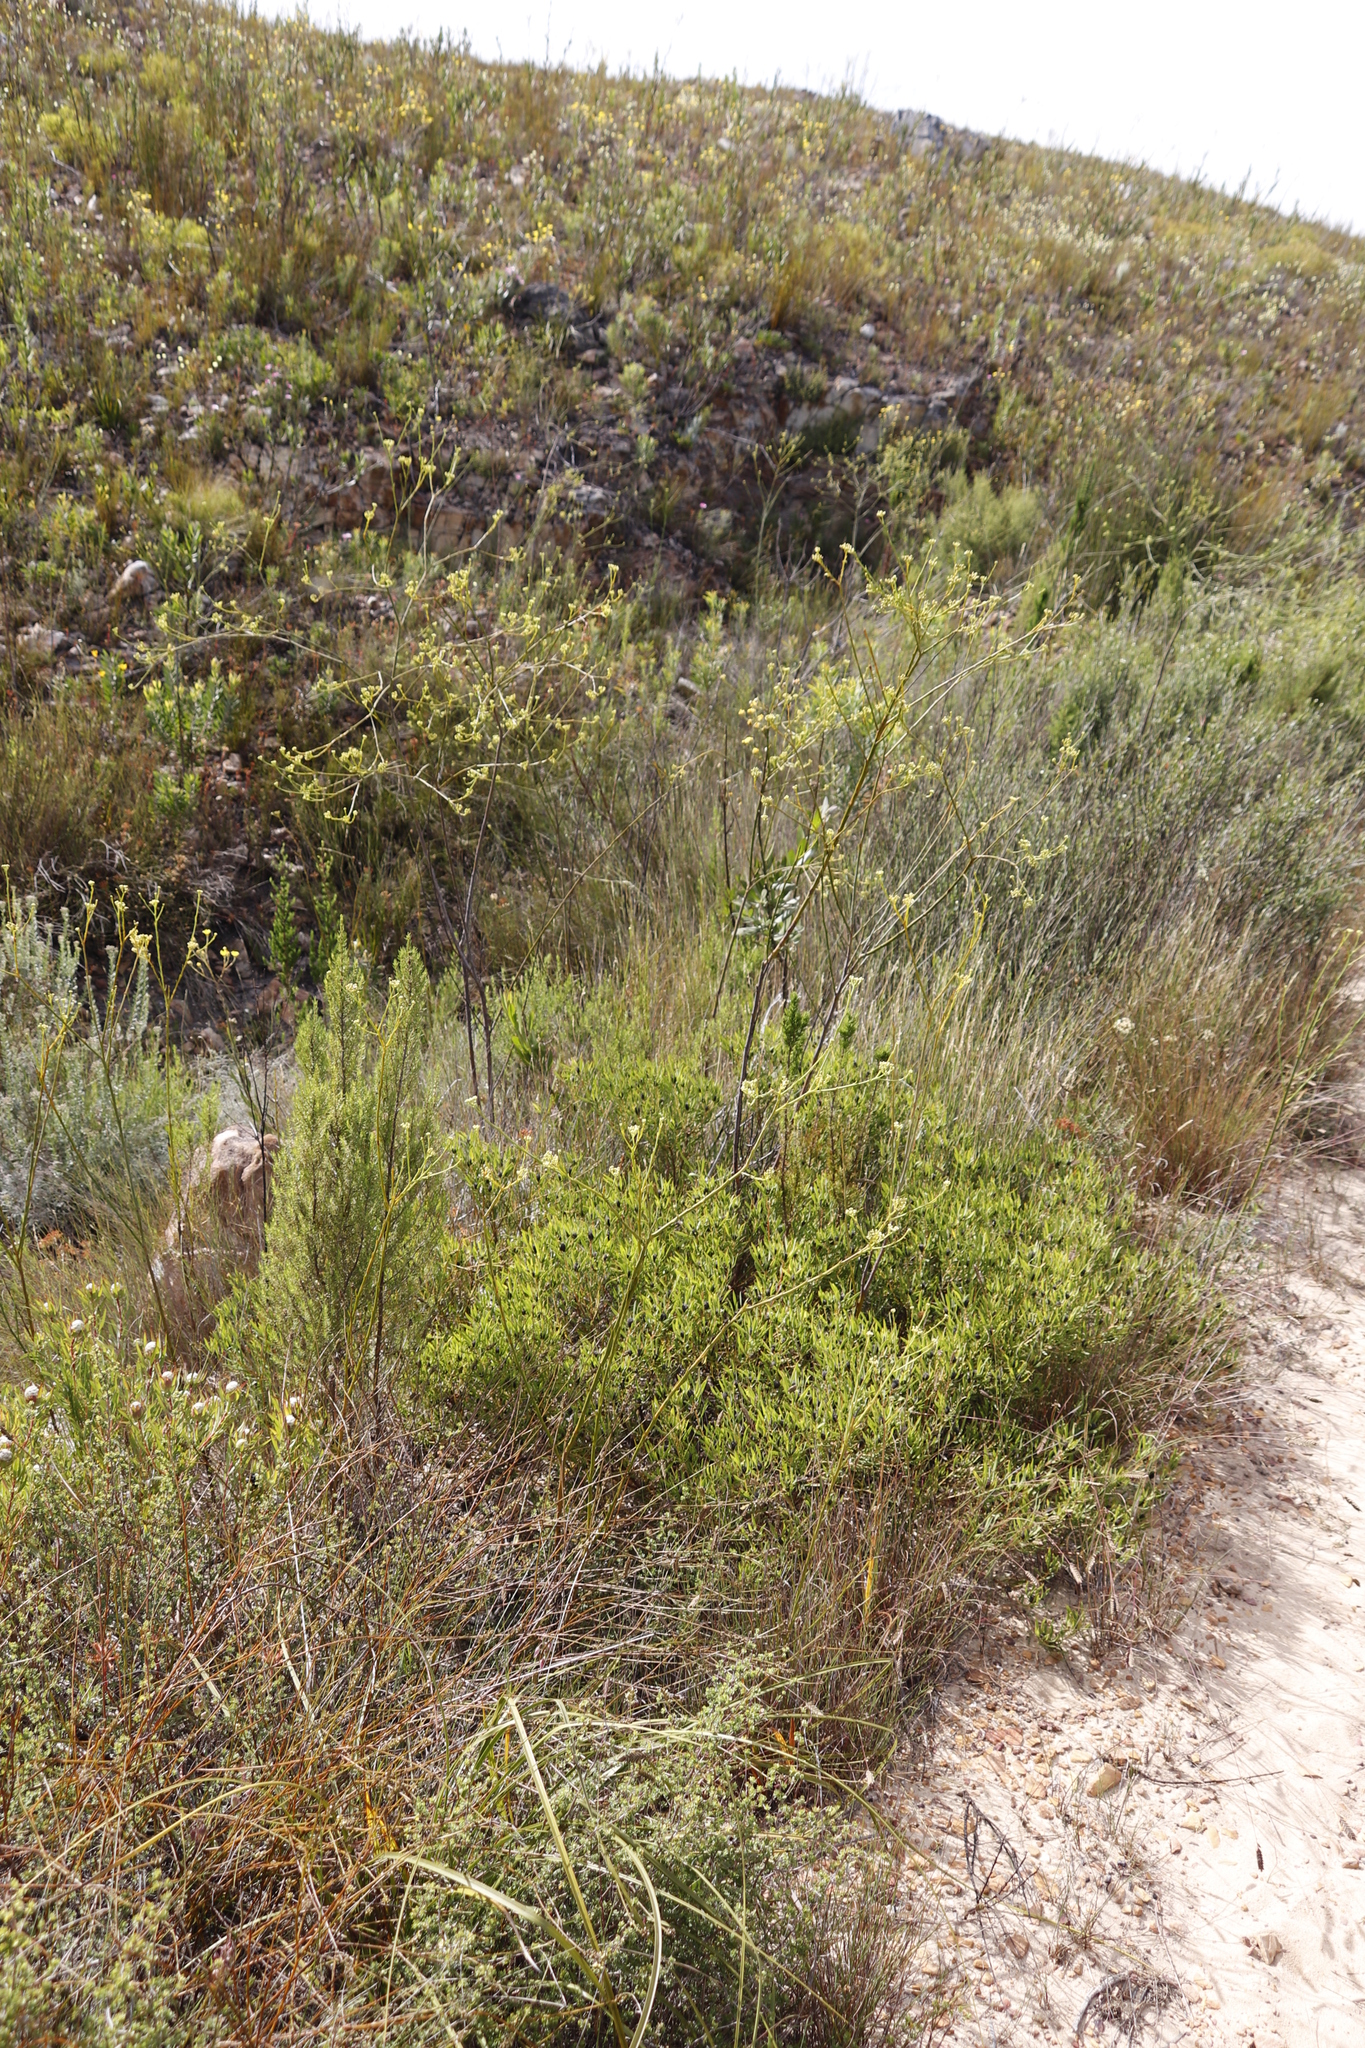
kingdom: Plantae
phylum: Tracheophyta
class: Magnoliopsida
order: Proteales
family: Proteaceae
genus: Leucadendron
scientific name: Leucadendron salignum
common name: Common sunshine conebush
